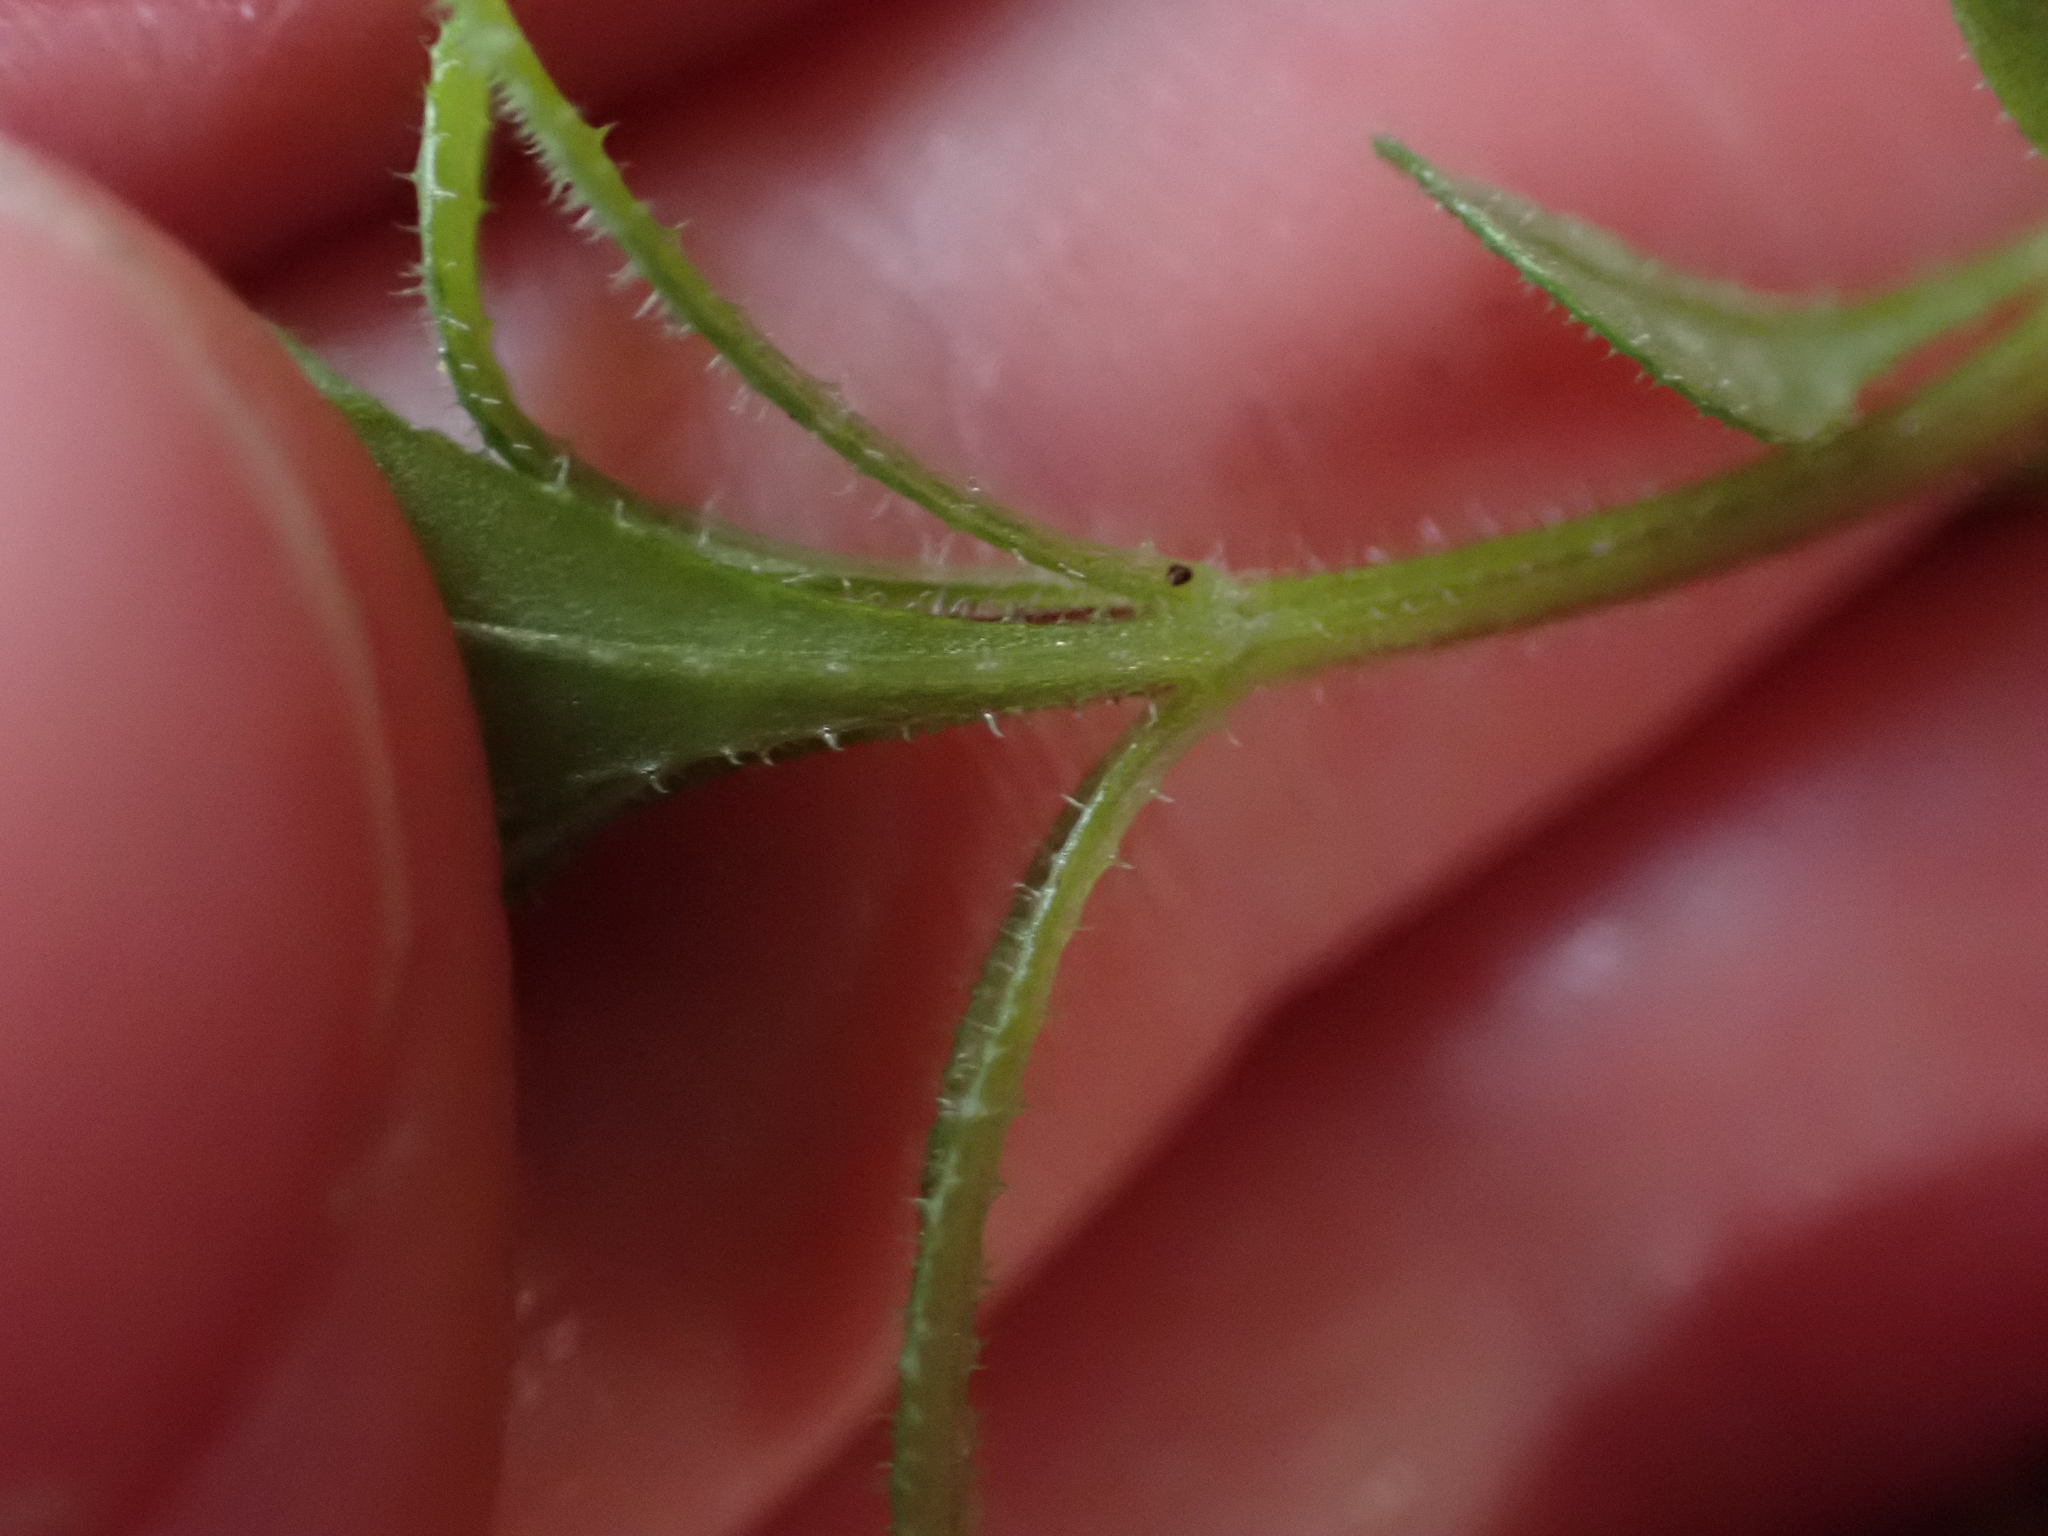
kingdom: Plantae
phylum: Tracheophyta
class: Magnoliopsida
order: Gentianales
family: Rubiaceae
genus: Galium
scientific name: Galium aparine
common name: Cleavers
